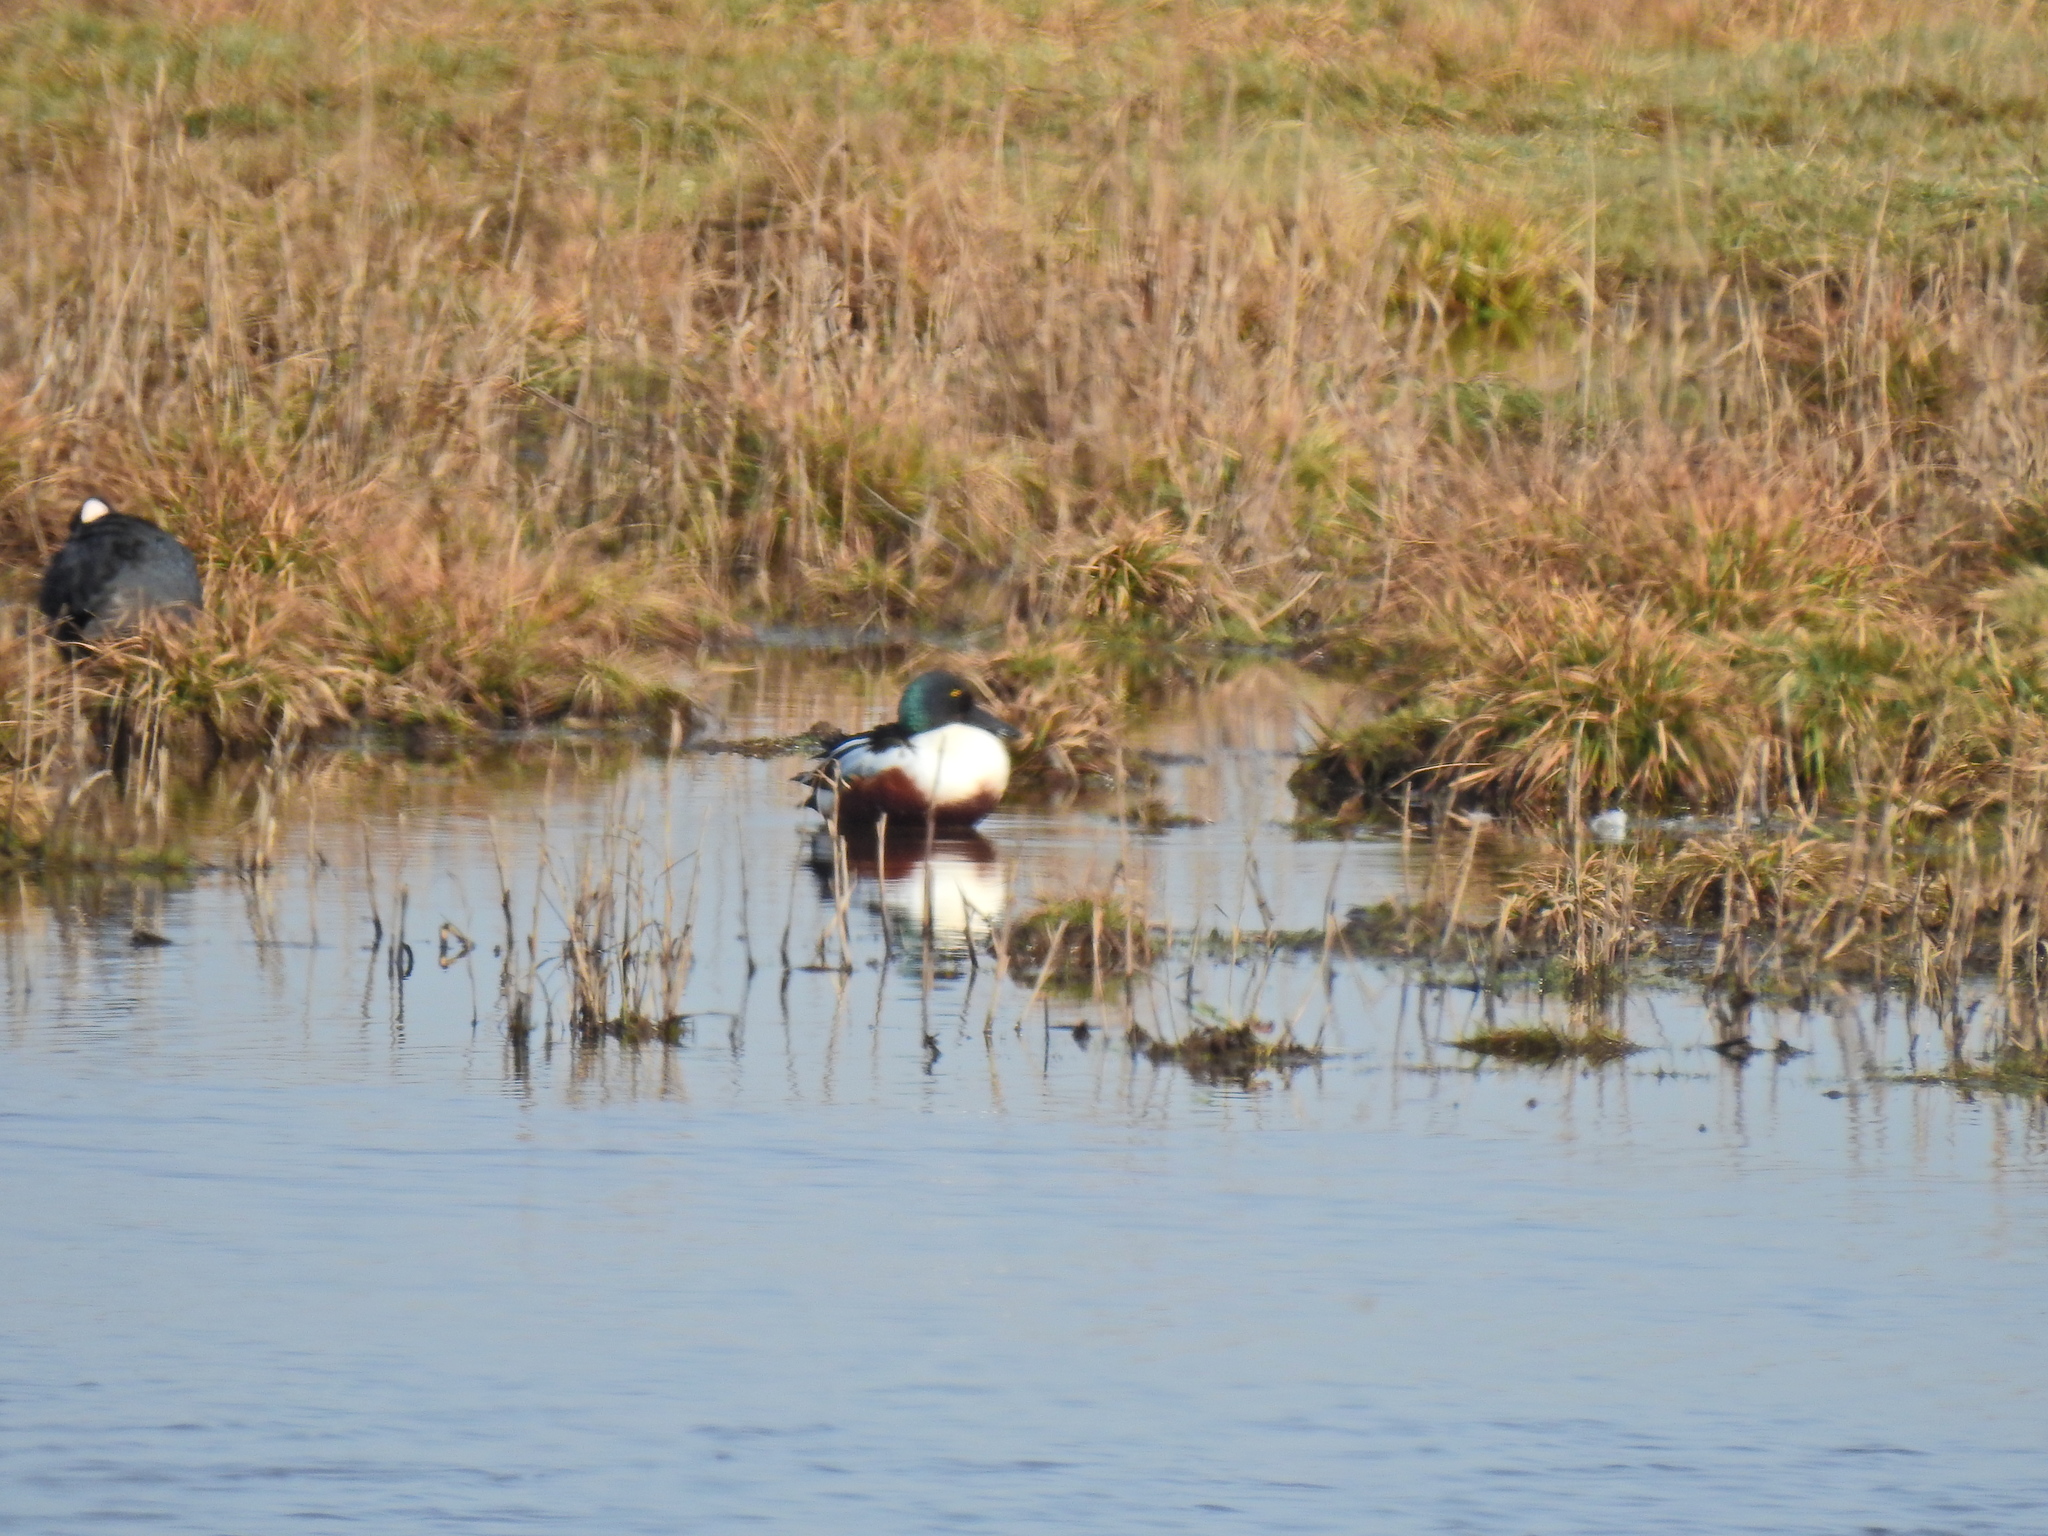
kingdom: Animalia
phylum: Chordata
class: Aves
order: Anseriformes
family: Anatidae
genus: Spatula
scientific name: Spatula clypeata
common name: Northern shoveler
